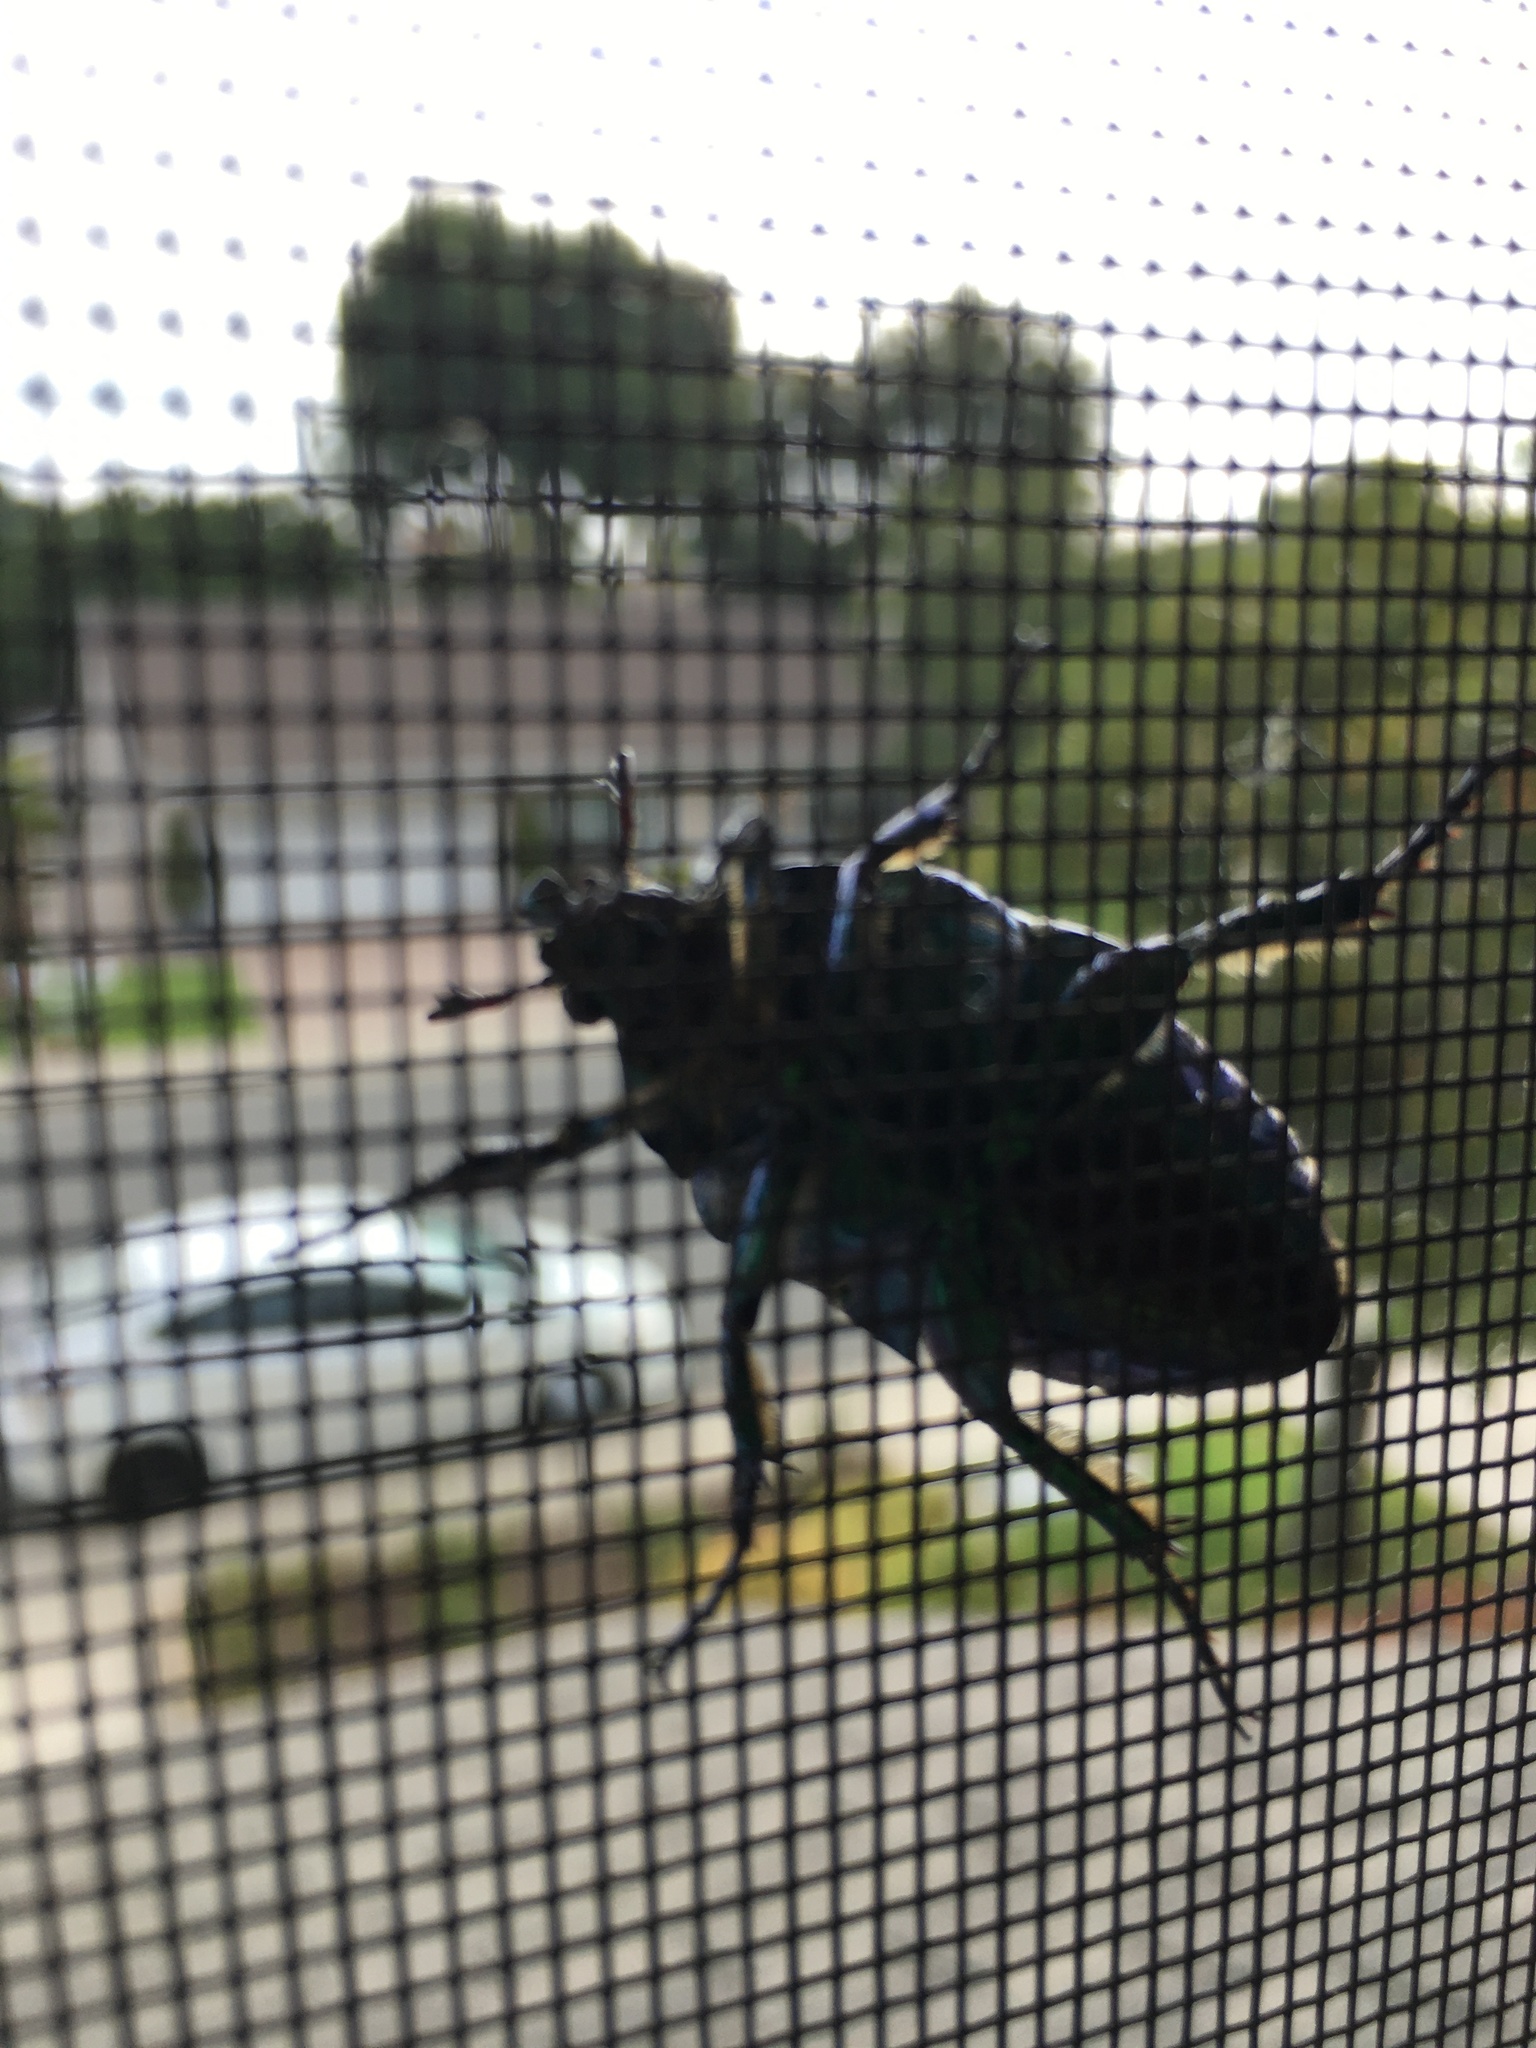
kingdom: Animalia
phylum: Arthropoda
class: Insecta
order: Coleoptera
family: Scarabaeidae
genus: Cotinis
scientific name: Cotinis mutabilis
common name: Figeater beetle
